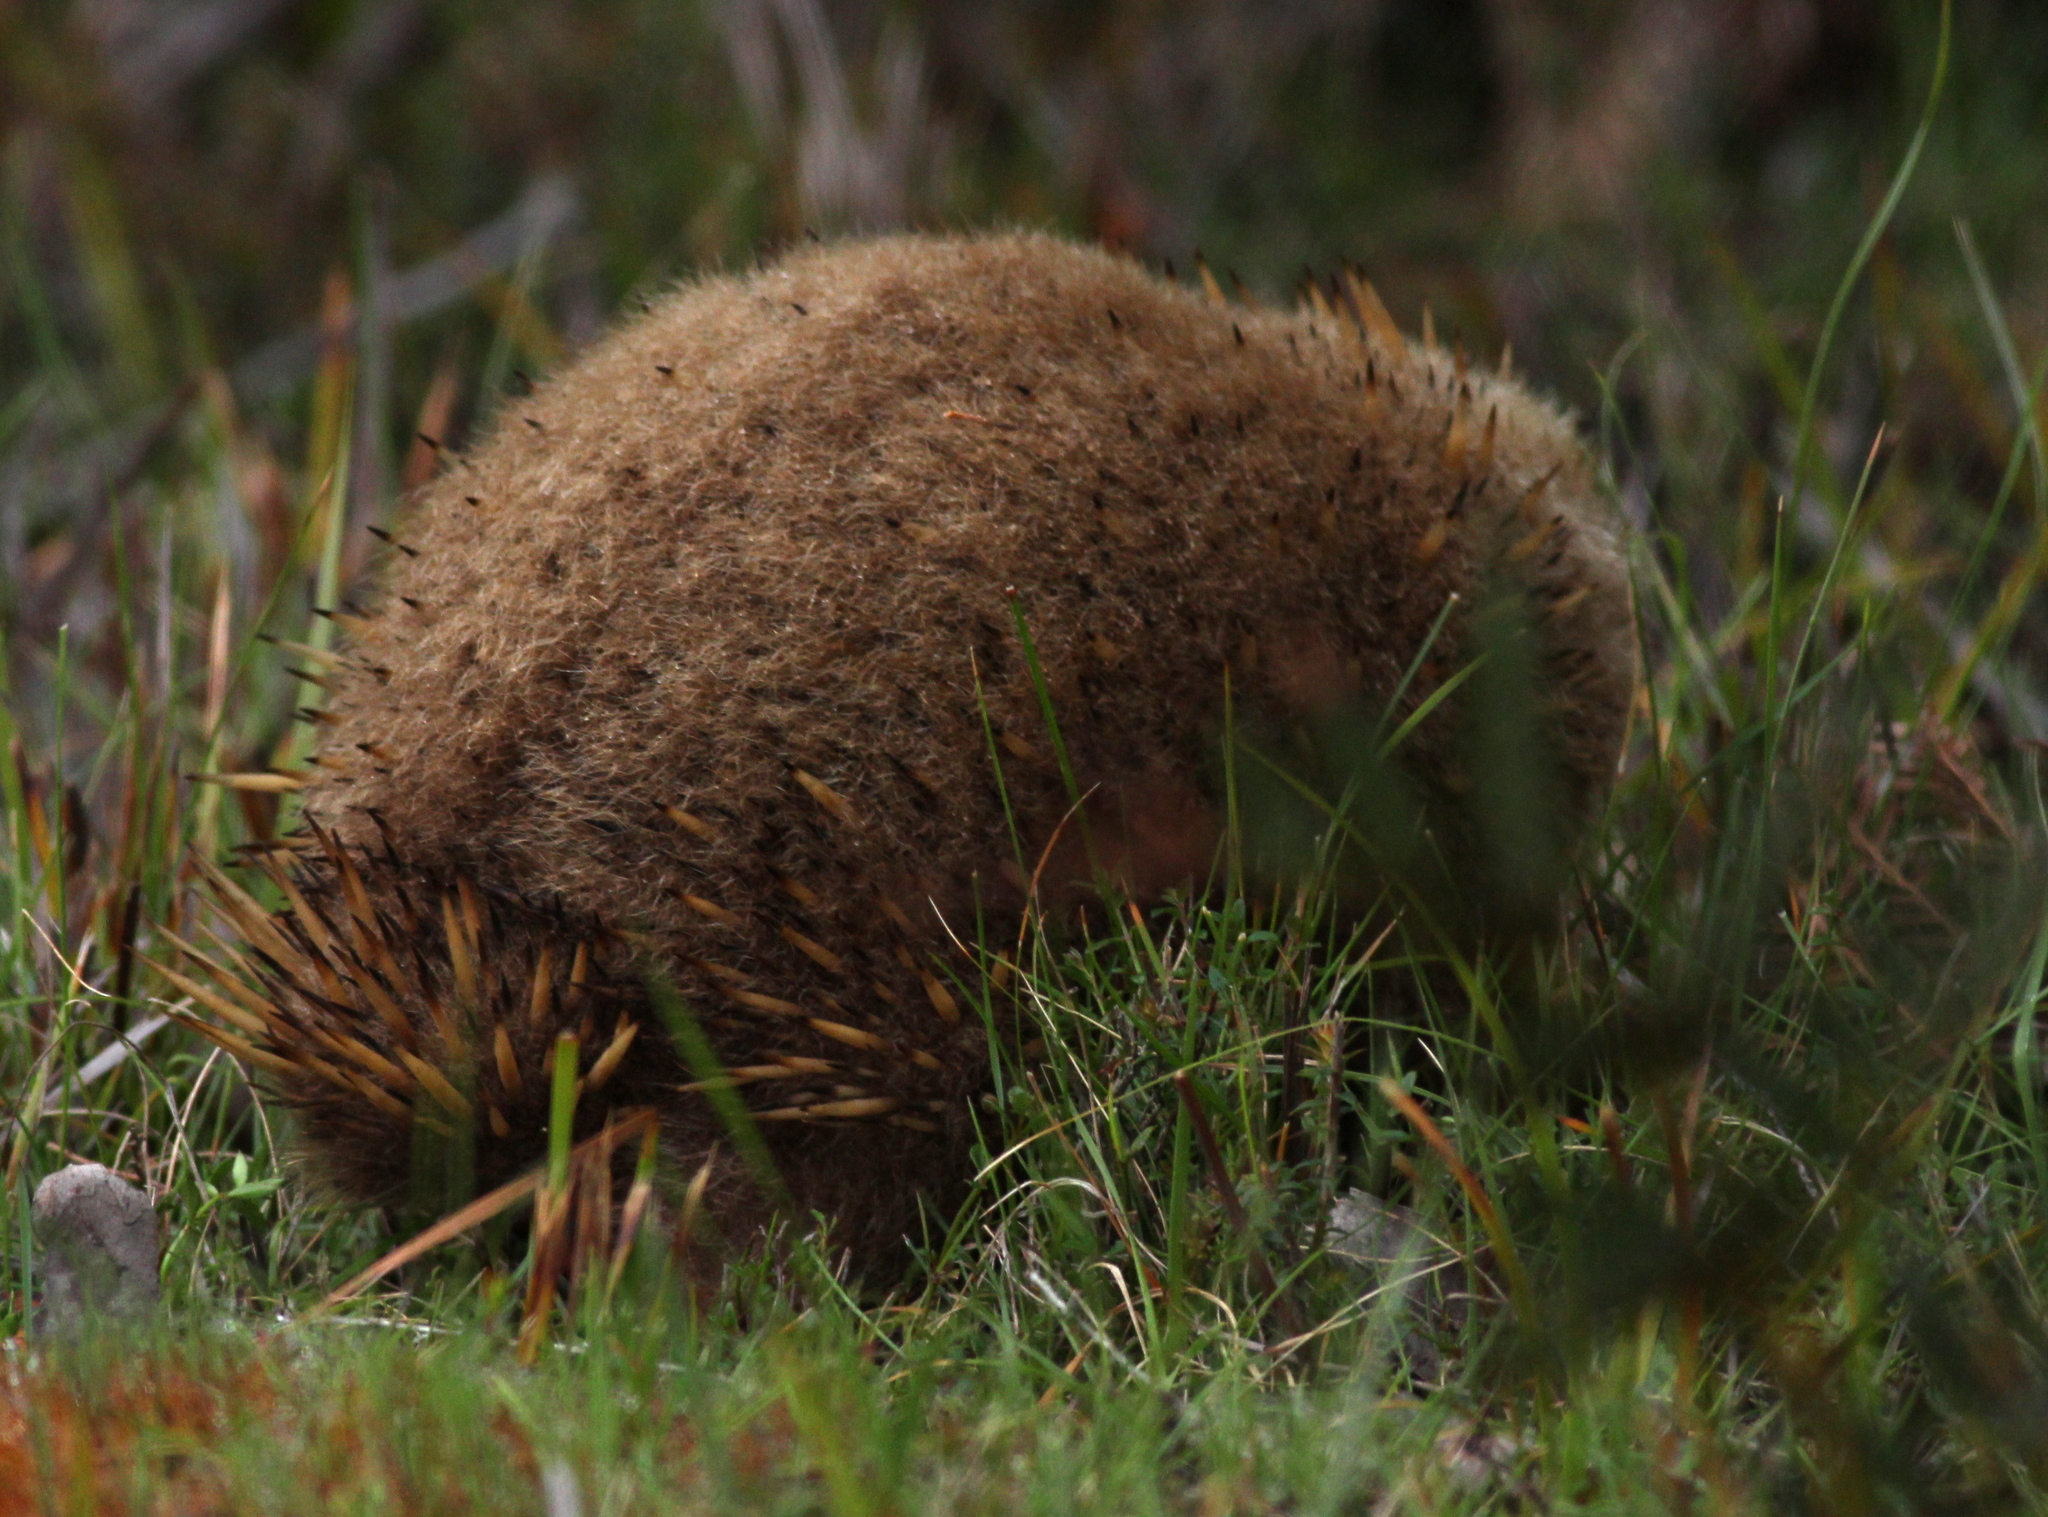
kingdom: Animalia
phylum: Chordata
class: Mammalia
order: Monotremata
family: Tachyglossidae
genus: Tachyglossus
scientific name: Tachyglossus aculeatus
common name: Short-beaked echidna
